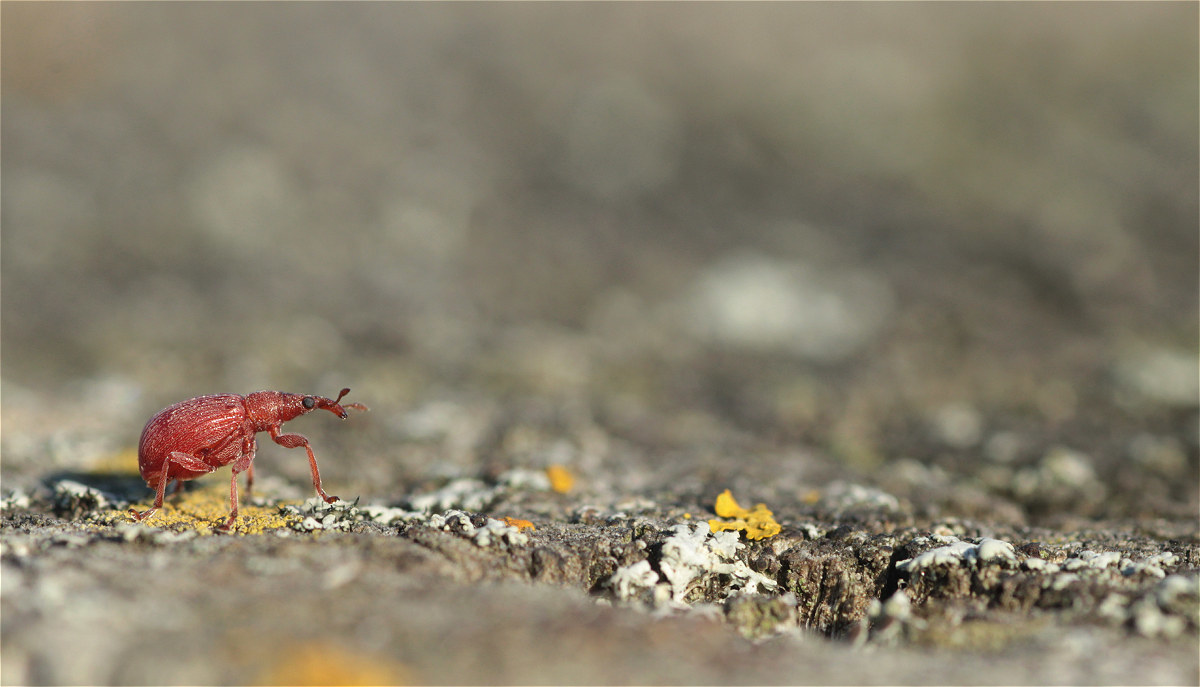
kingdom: Animalia
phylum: Arthropoda
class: Insecta
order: Coleoptera
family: Apionidae
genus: Apion
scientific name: Apion frumentarium
